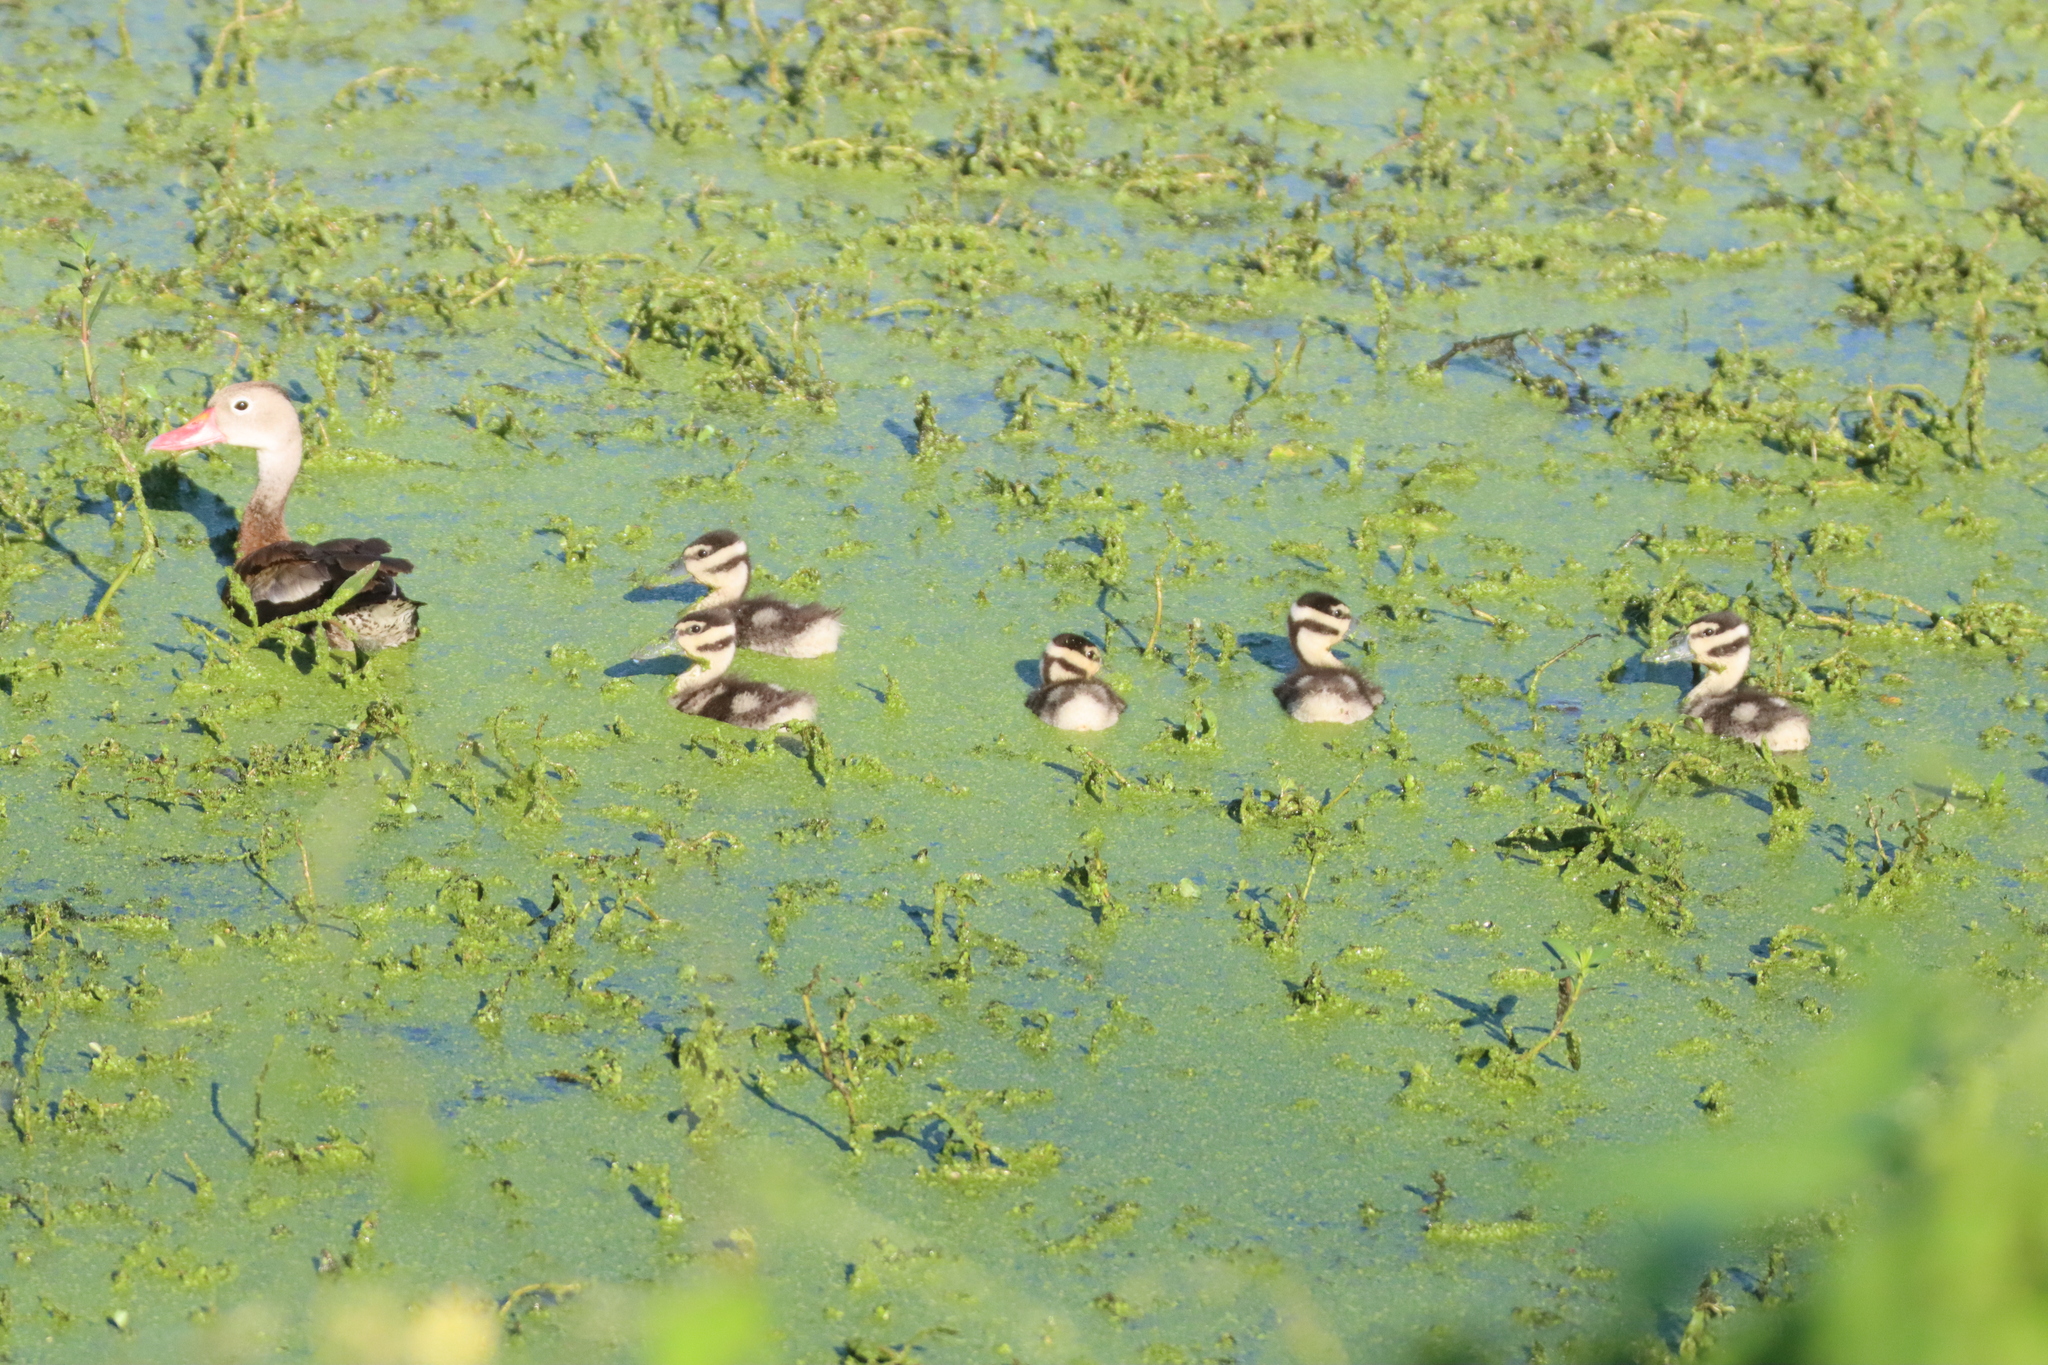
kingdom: Animalia
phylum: Chordata
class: Aves
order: Anseriformes
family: Anatidae
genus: Dendrocygna
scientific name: Dendrocygna autumnalis
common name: Black-bellied whistling duck
